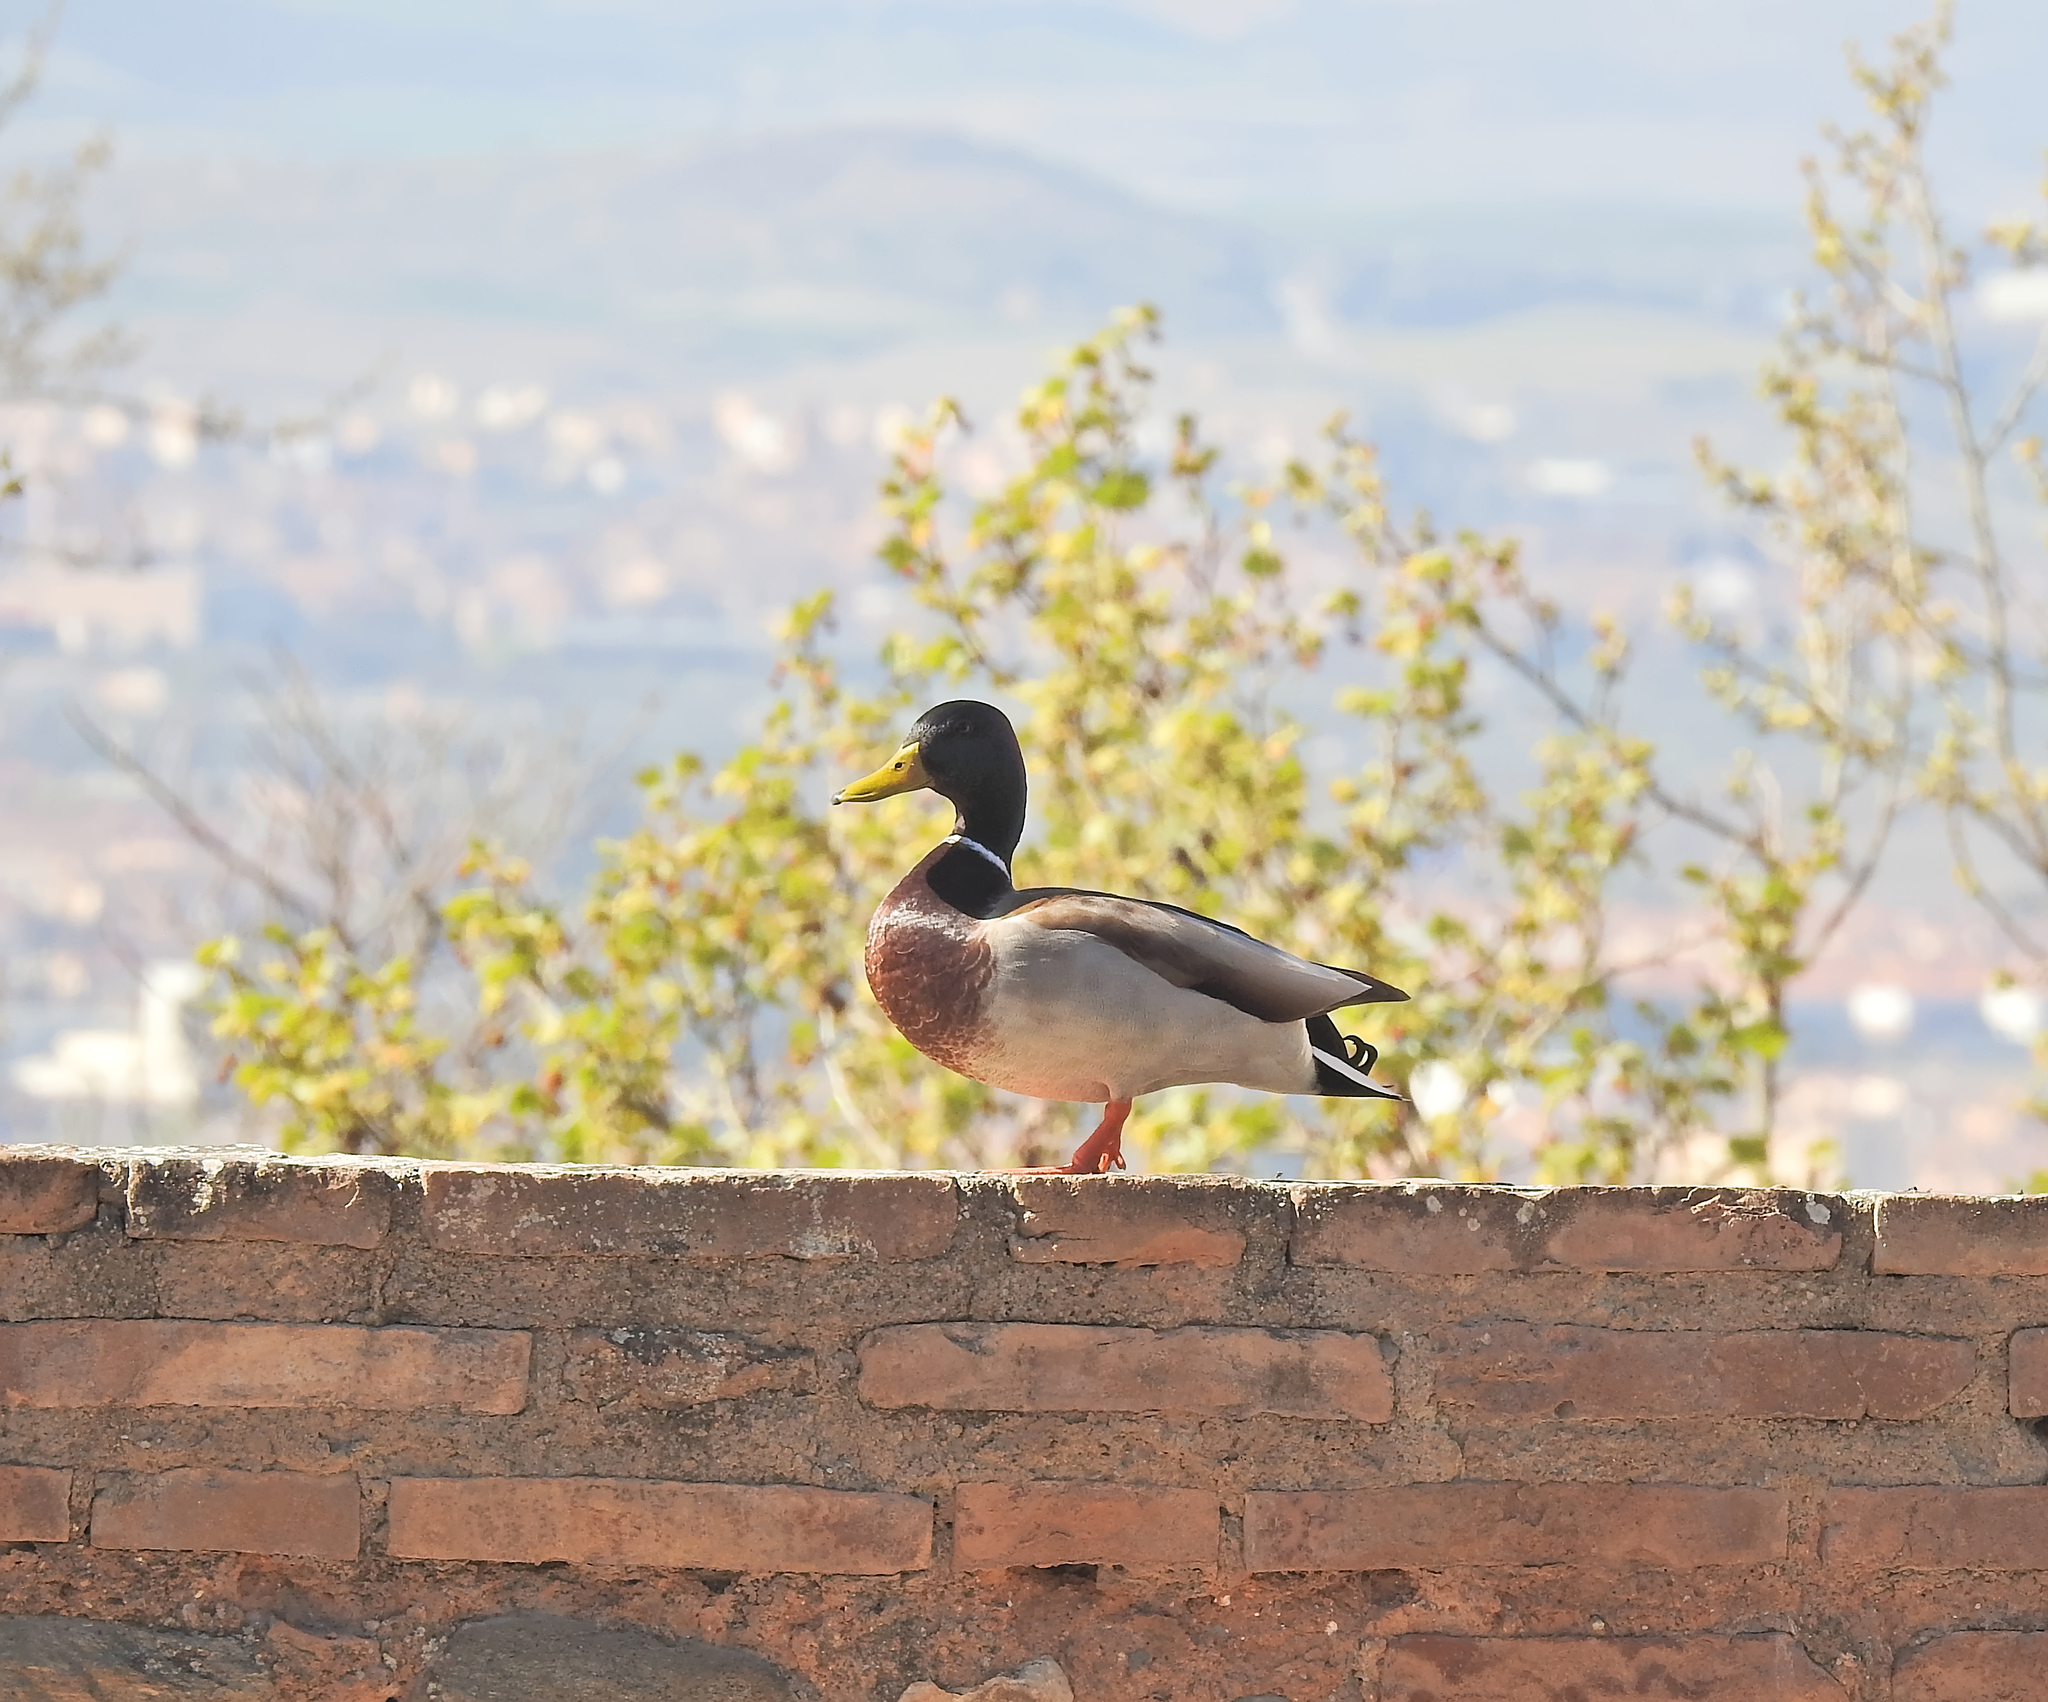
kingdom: Animalia
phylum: Chordata
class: Aves
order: Anseriformes
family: Anatidae
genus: Anas
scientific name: Anas platyrhynchos
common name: Mallard
